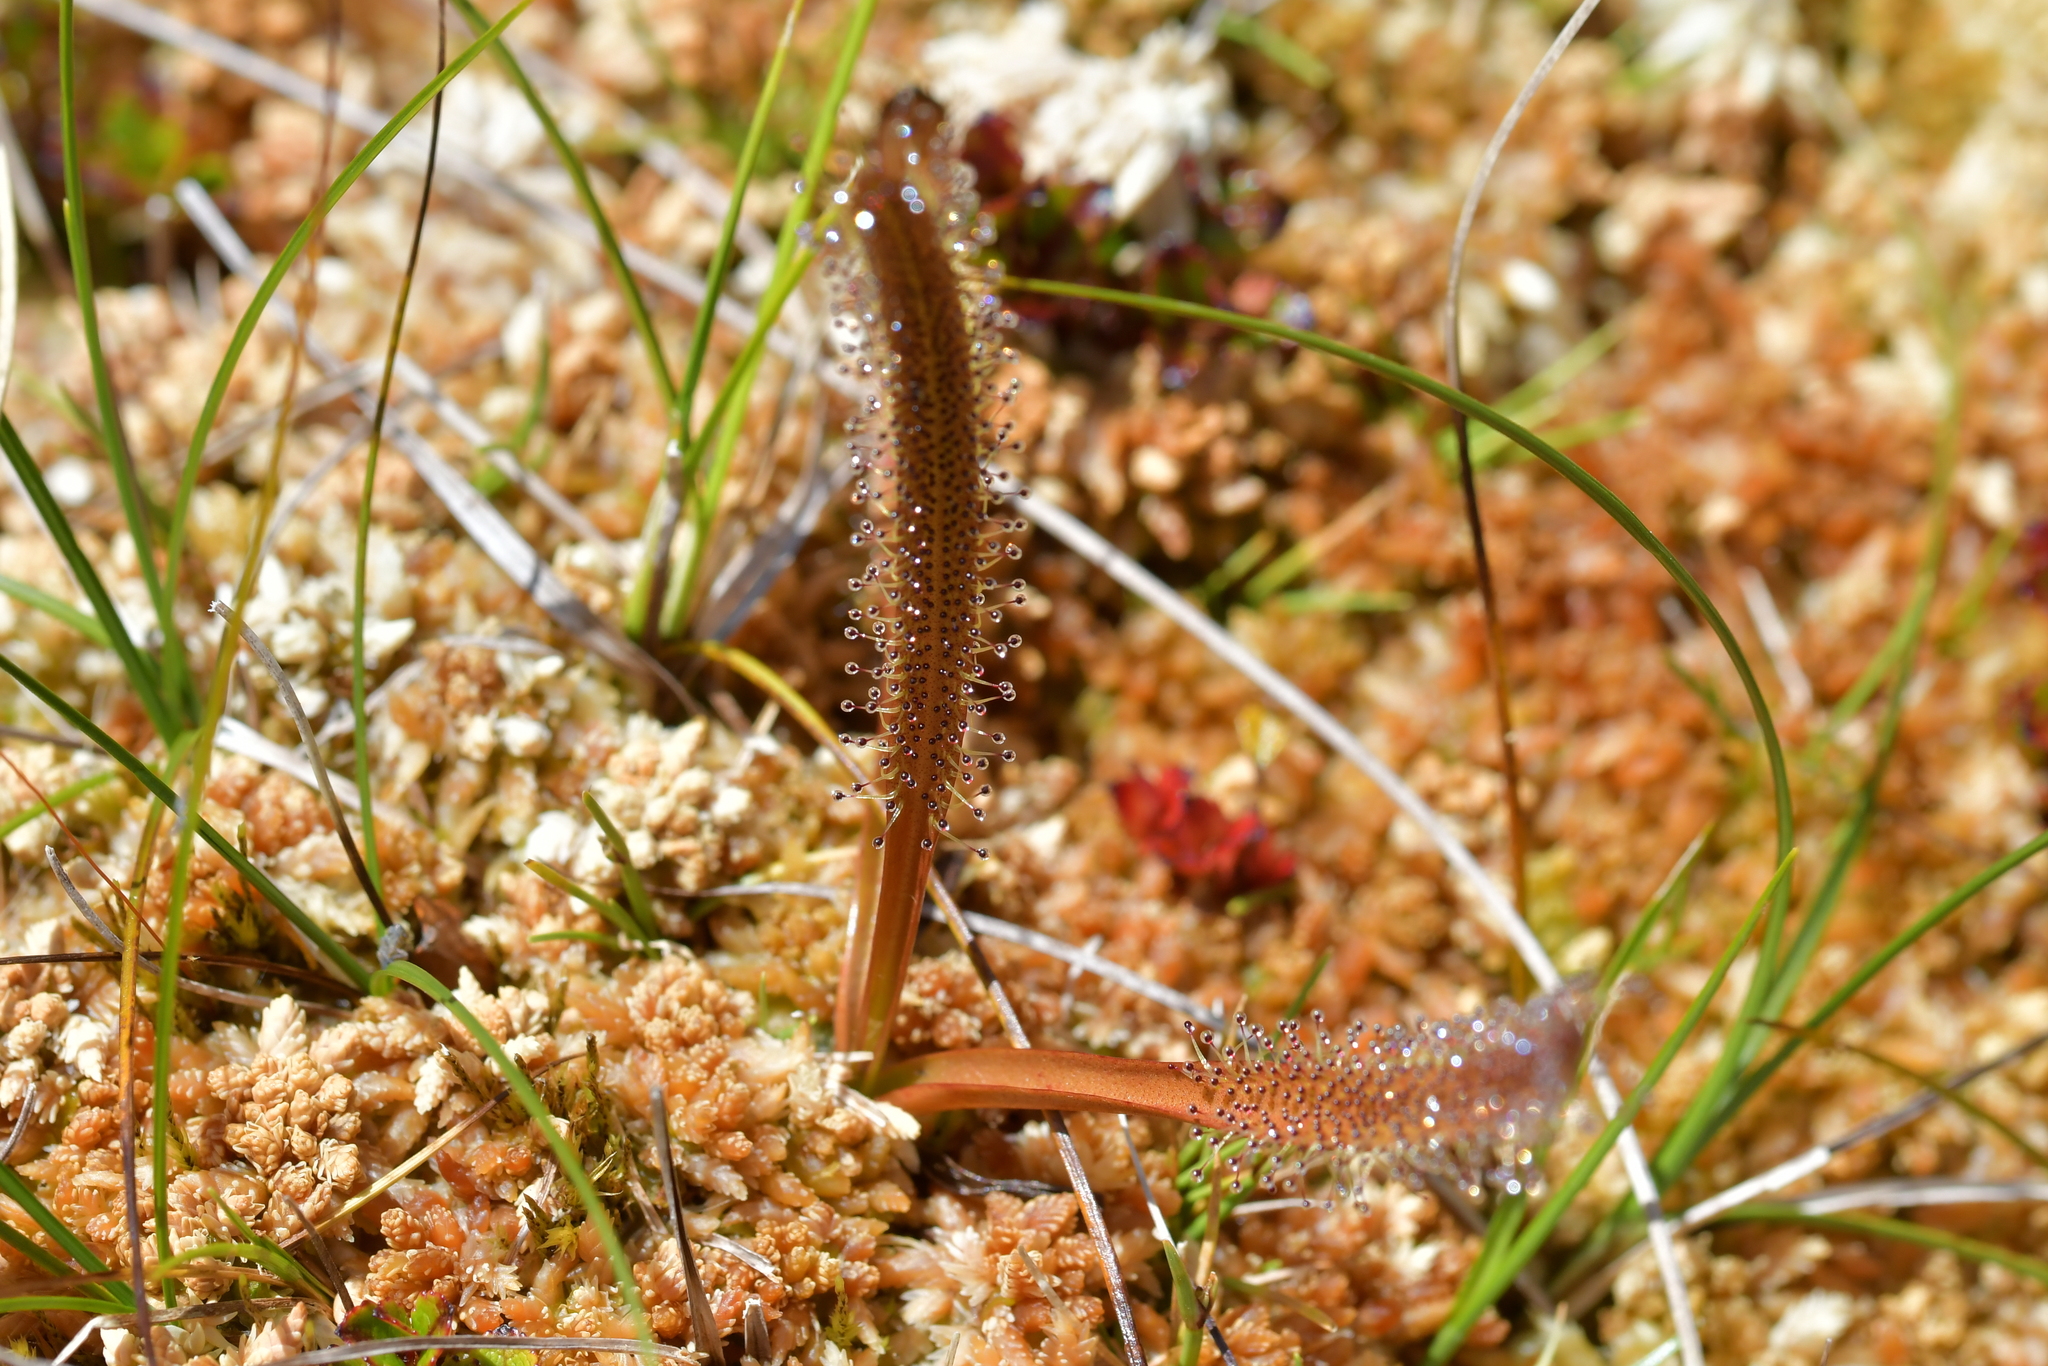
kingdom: Plantae
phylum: Tracheophyta
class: Magnoliopsida
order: Caryophyllales
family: Droseraceae
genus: Drosera
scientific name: Drosera arcturi
